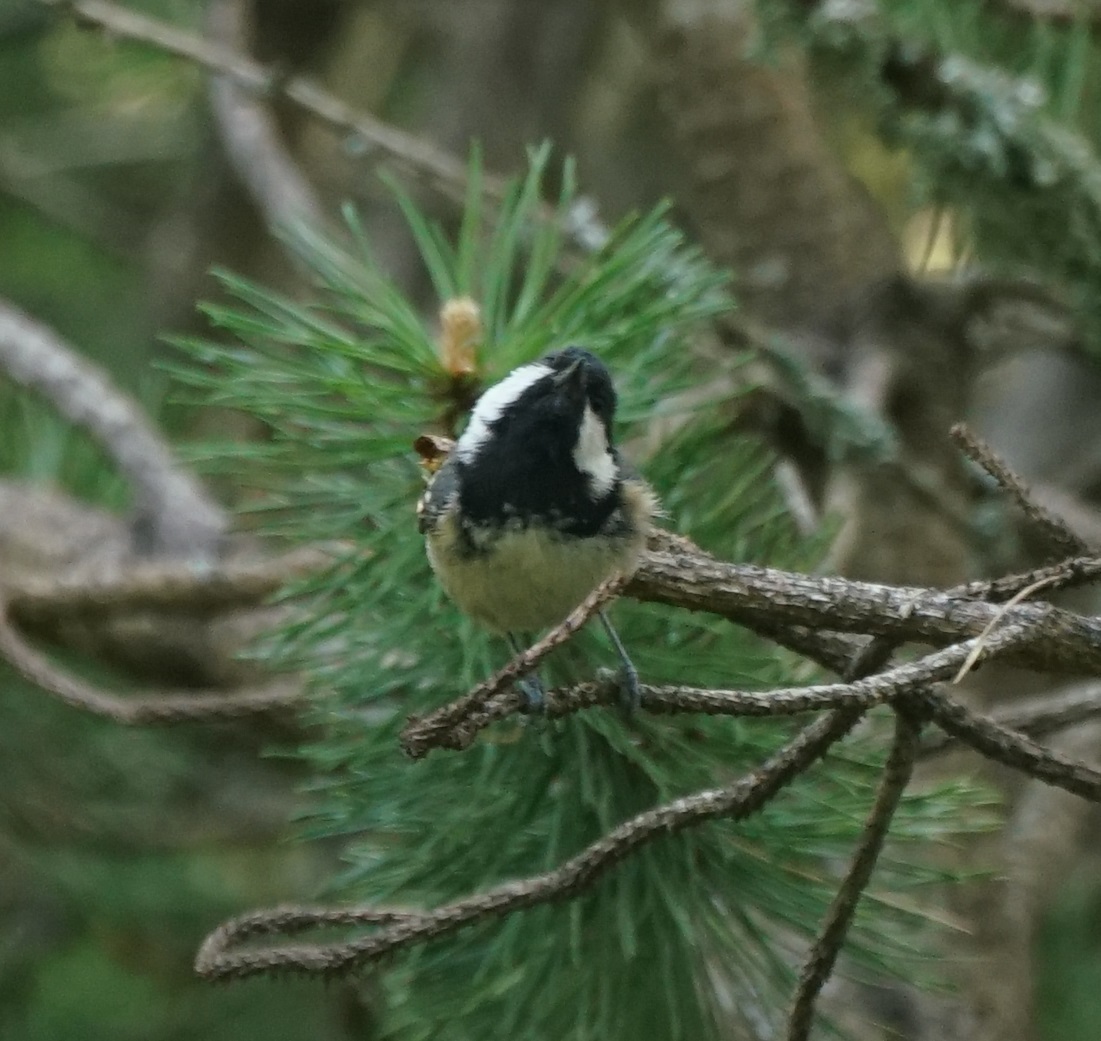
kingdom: Animalia
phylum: Chordata
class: Aves
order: Passeriformes
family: Paridae
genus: Periparus
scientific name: Periparus ater
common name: Coal tit
